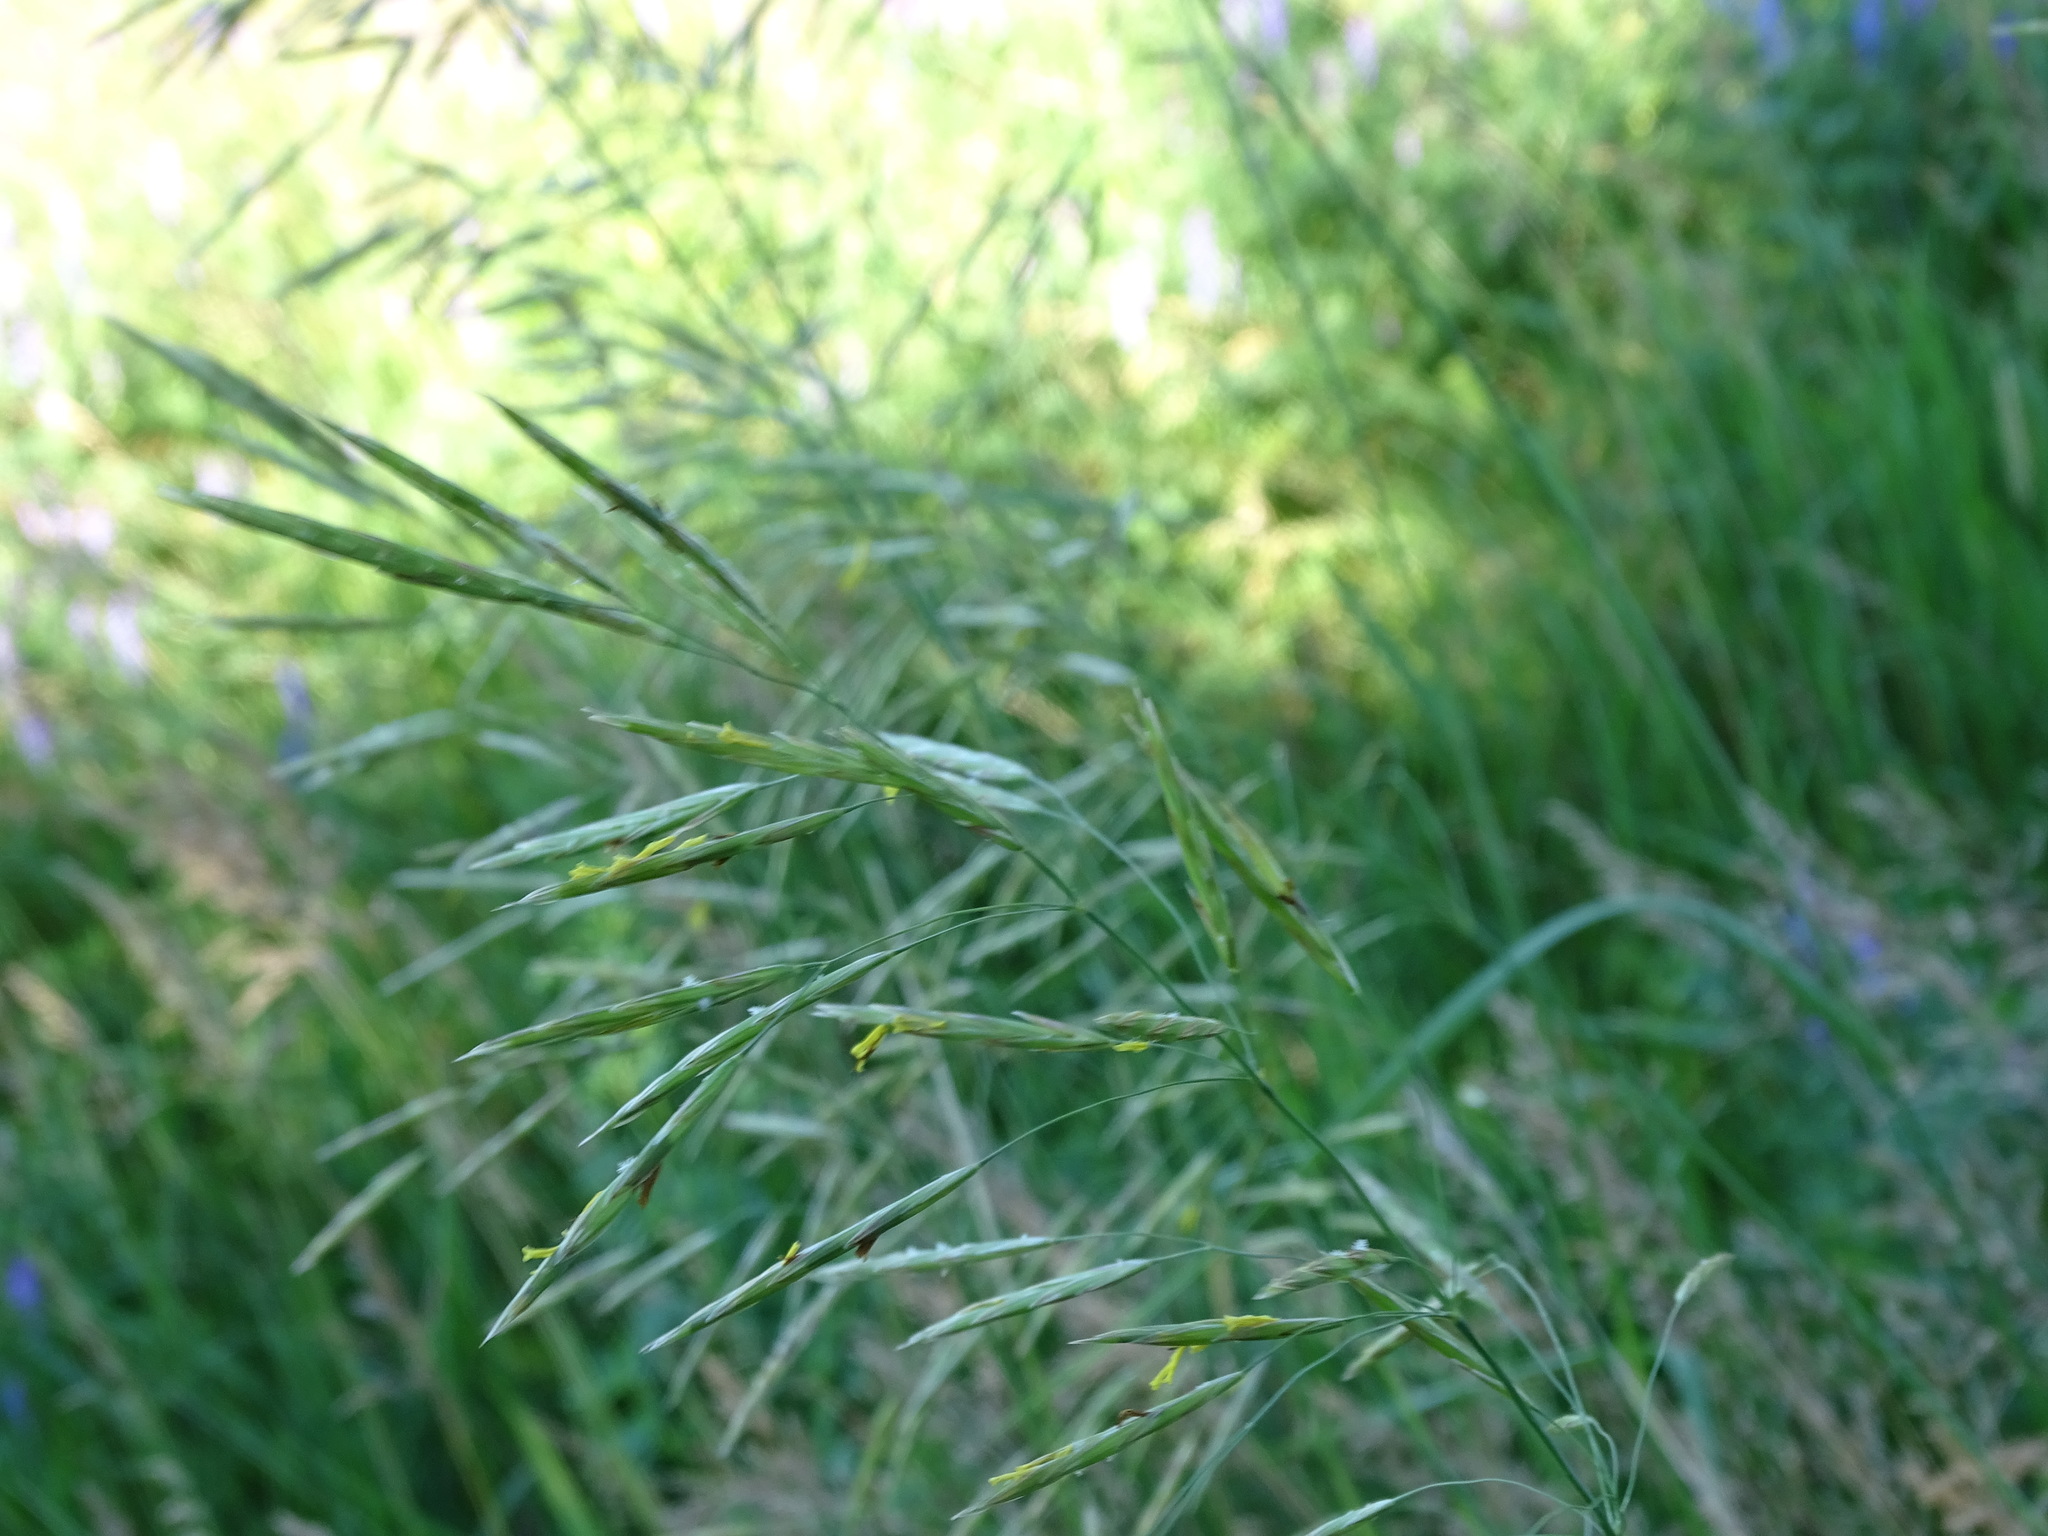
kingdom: Plantae
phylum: Tracheophyta
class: Liliopsida
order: Poales
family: Poaceae
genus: Bromus
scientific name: Bromus inermis
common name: Smooth brome
